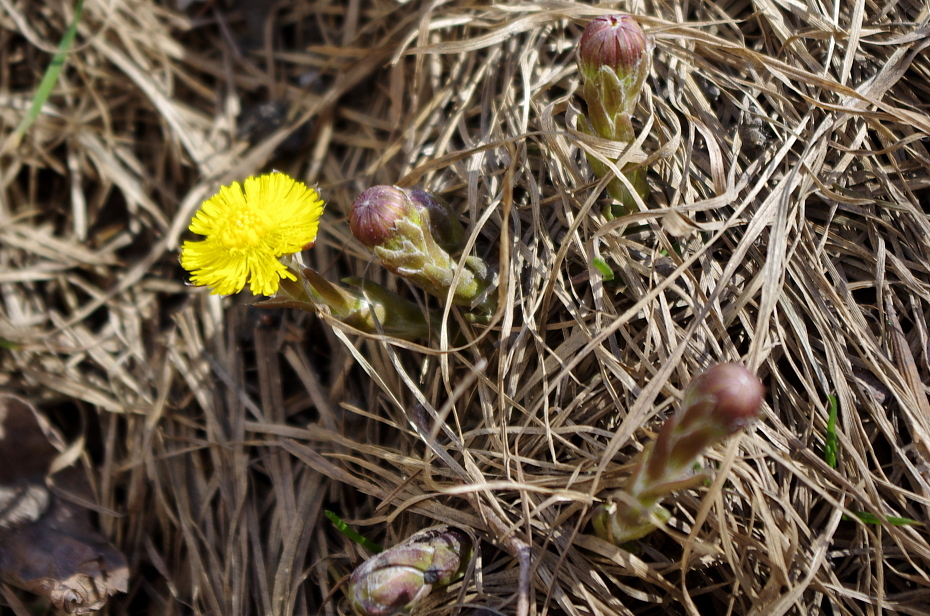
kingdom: Plantae
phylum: Tracheophyta
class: Magnoliopsida
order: Asterales
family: Asteraceae
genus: Tussilago
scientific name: Tussilago farfara
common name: Coltsfoot
